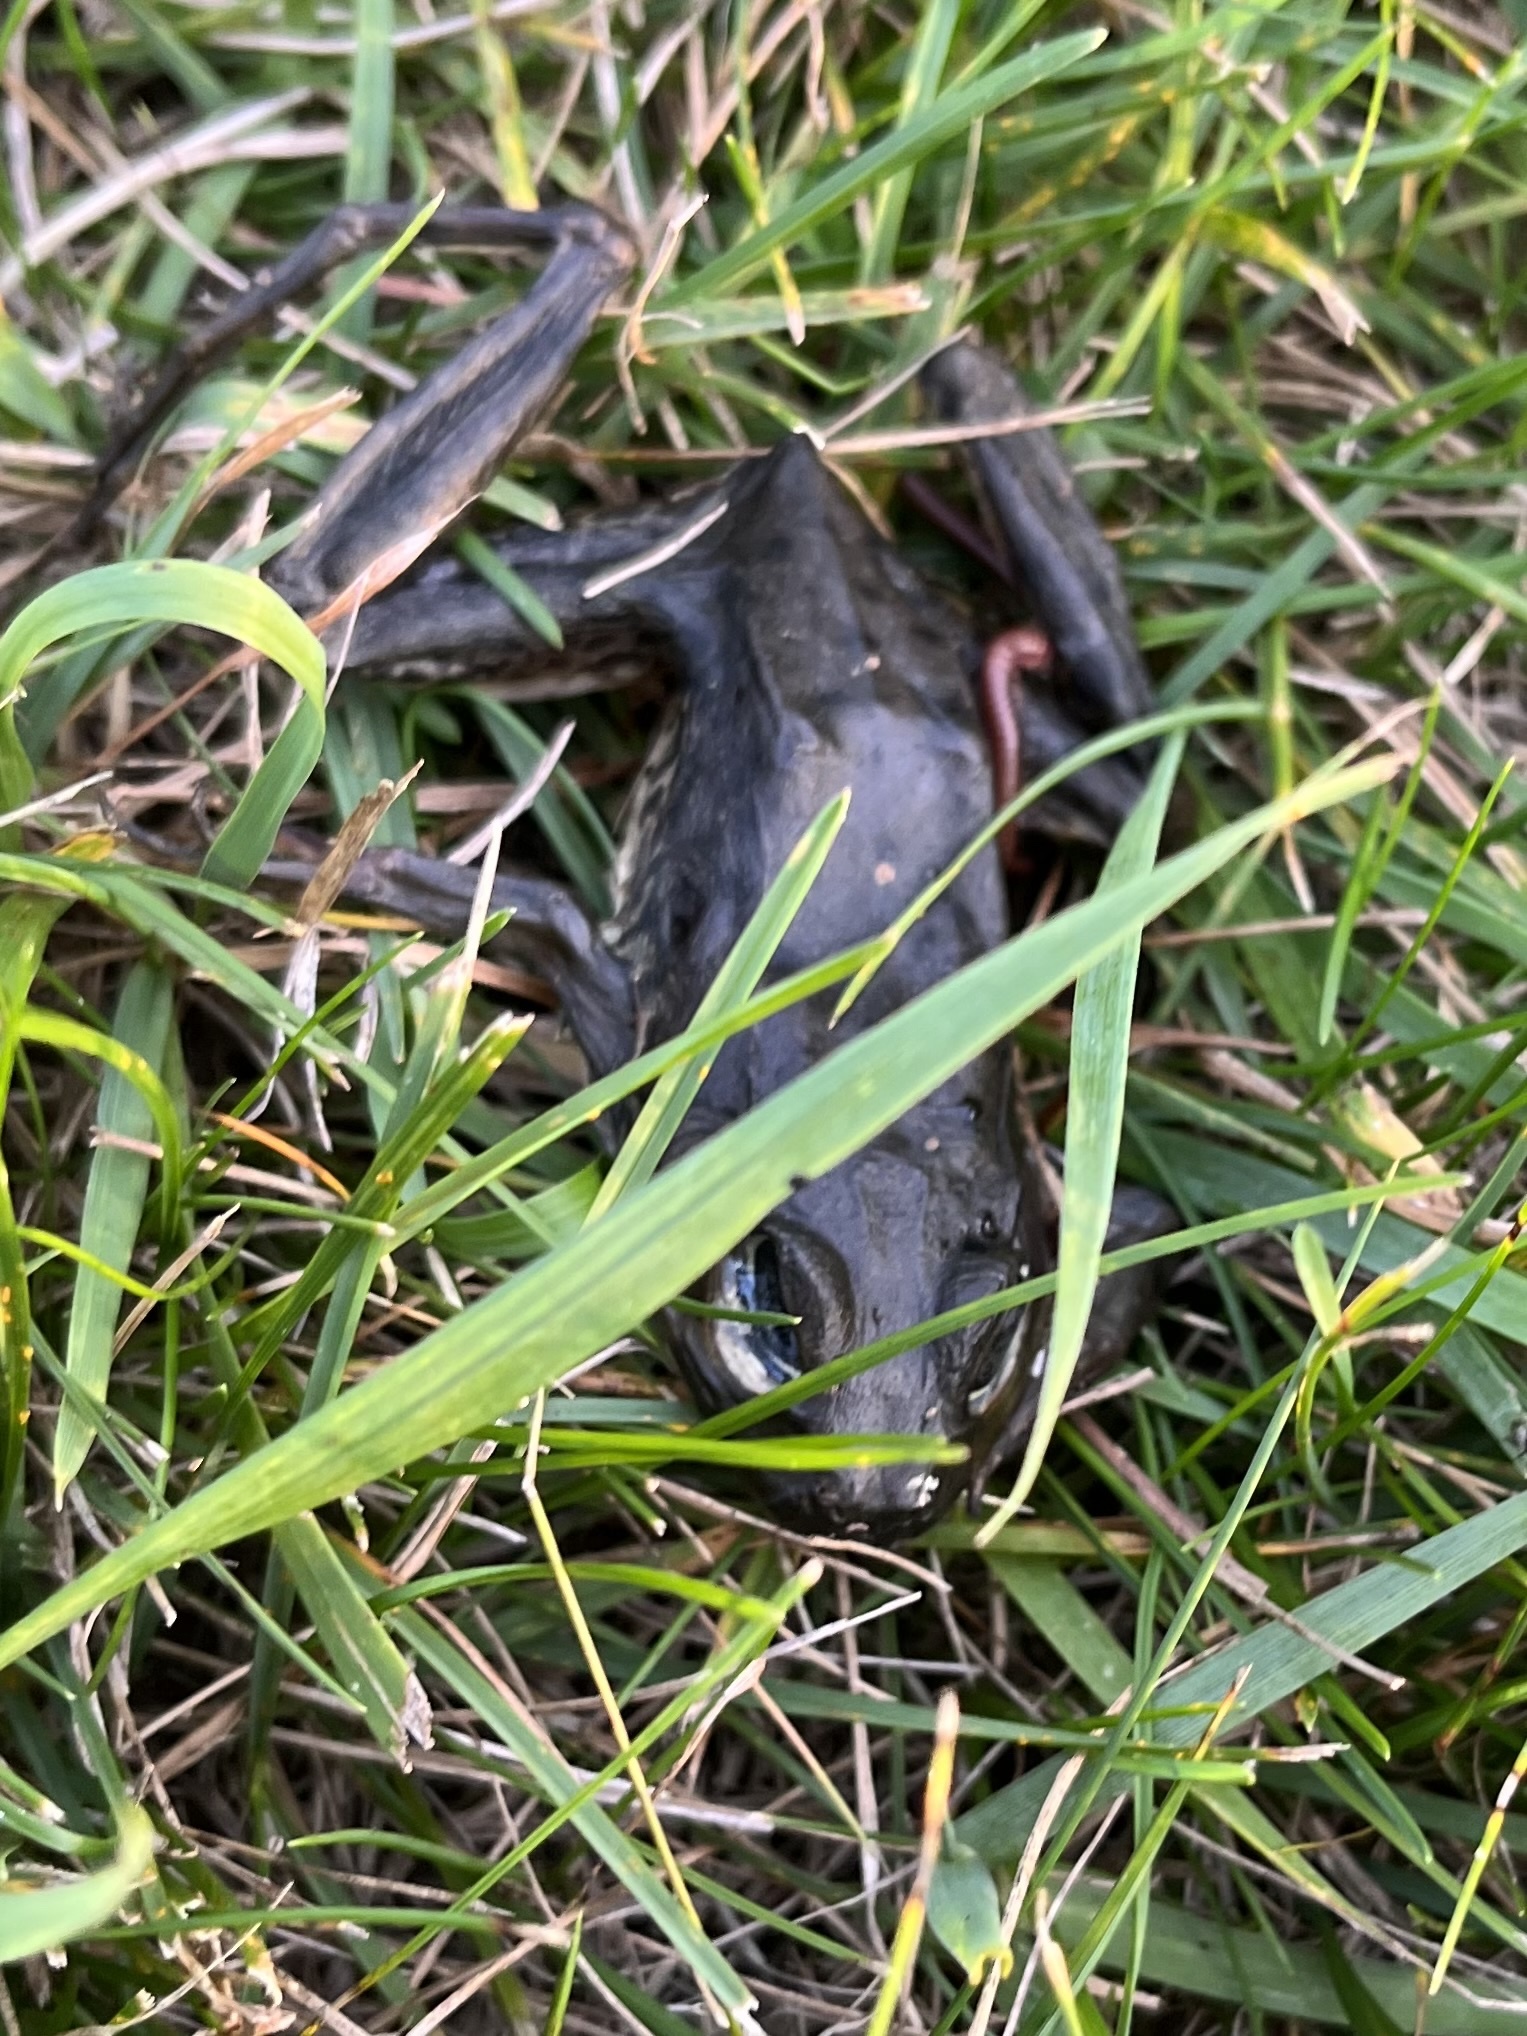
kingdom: Animalia
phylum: Chordata
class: Amphibia
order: Anura
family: Ranidae
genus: Lithobates
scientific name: Lithobates clamitans
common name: Green frog
